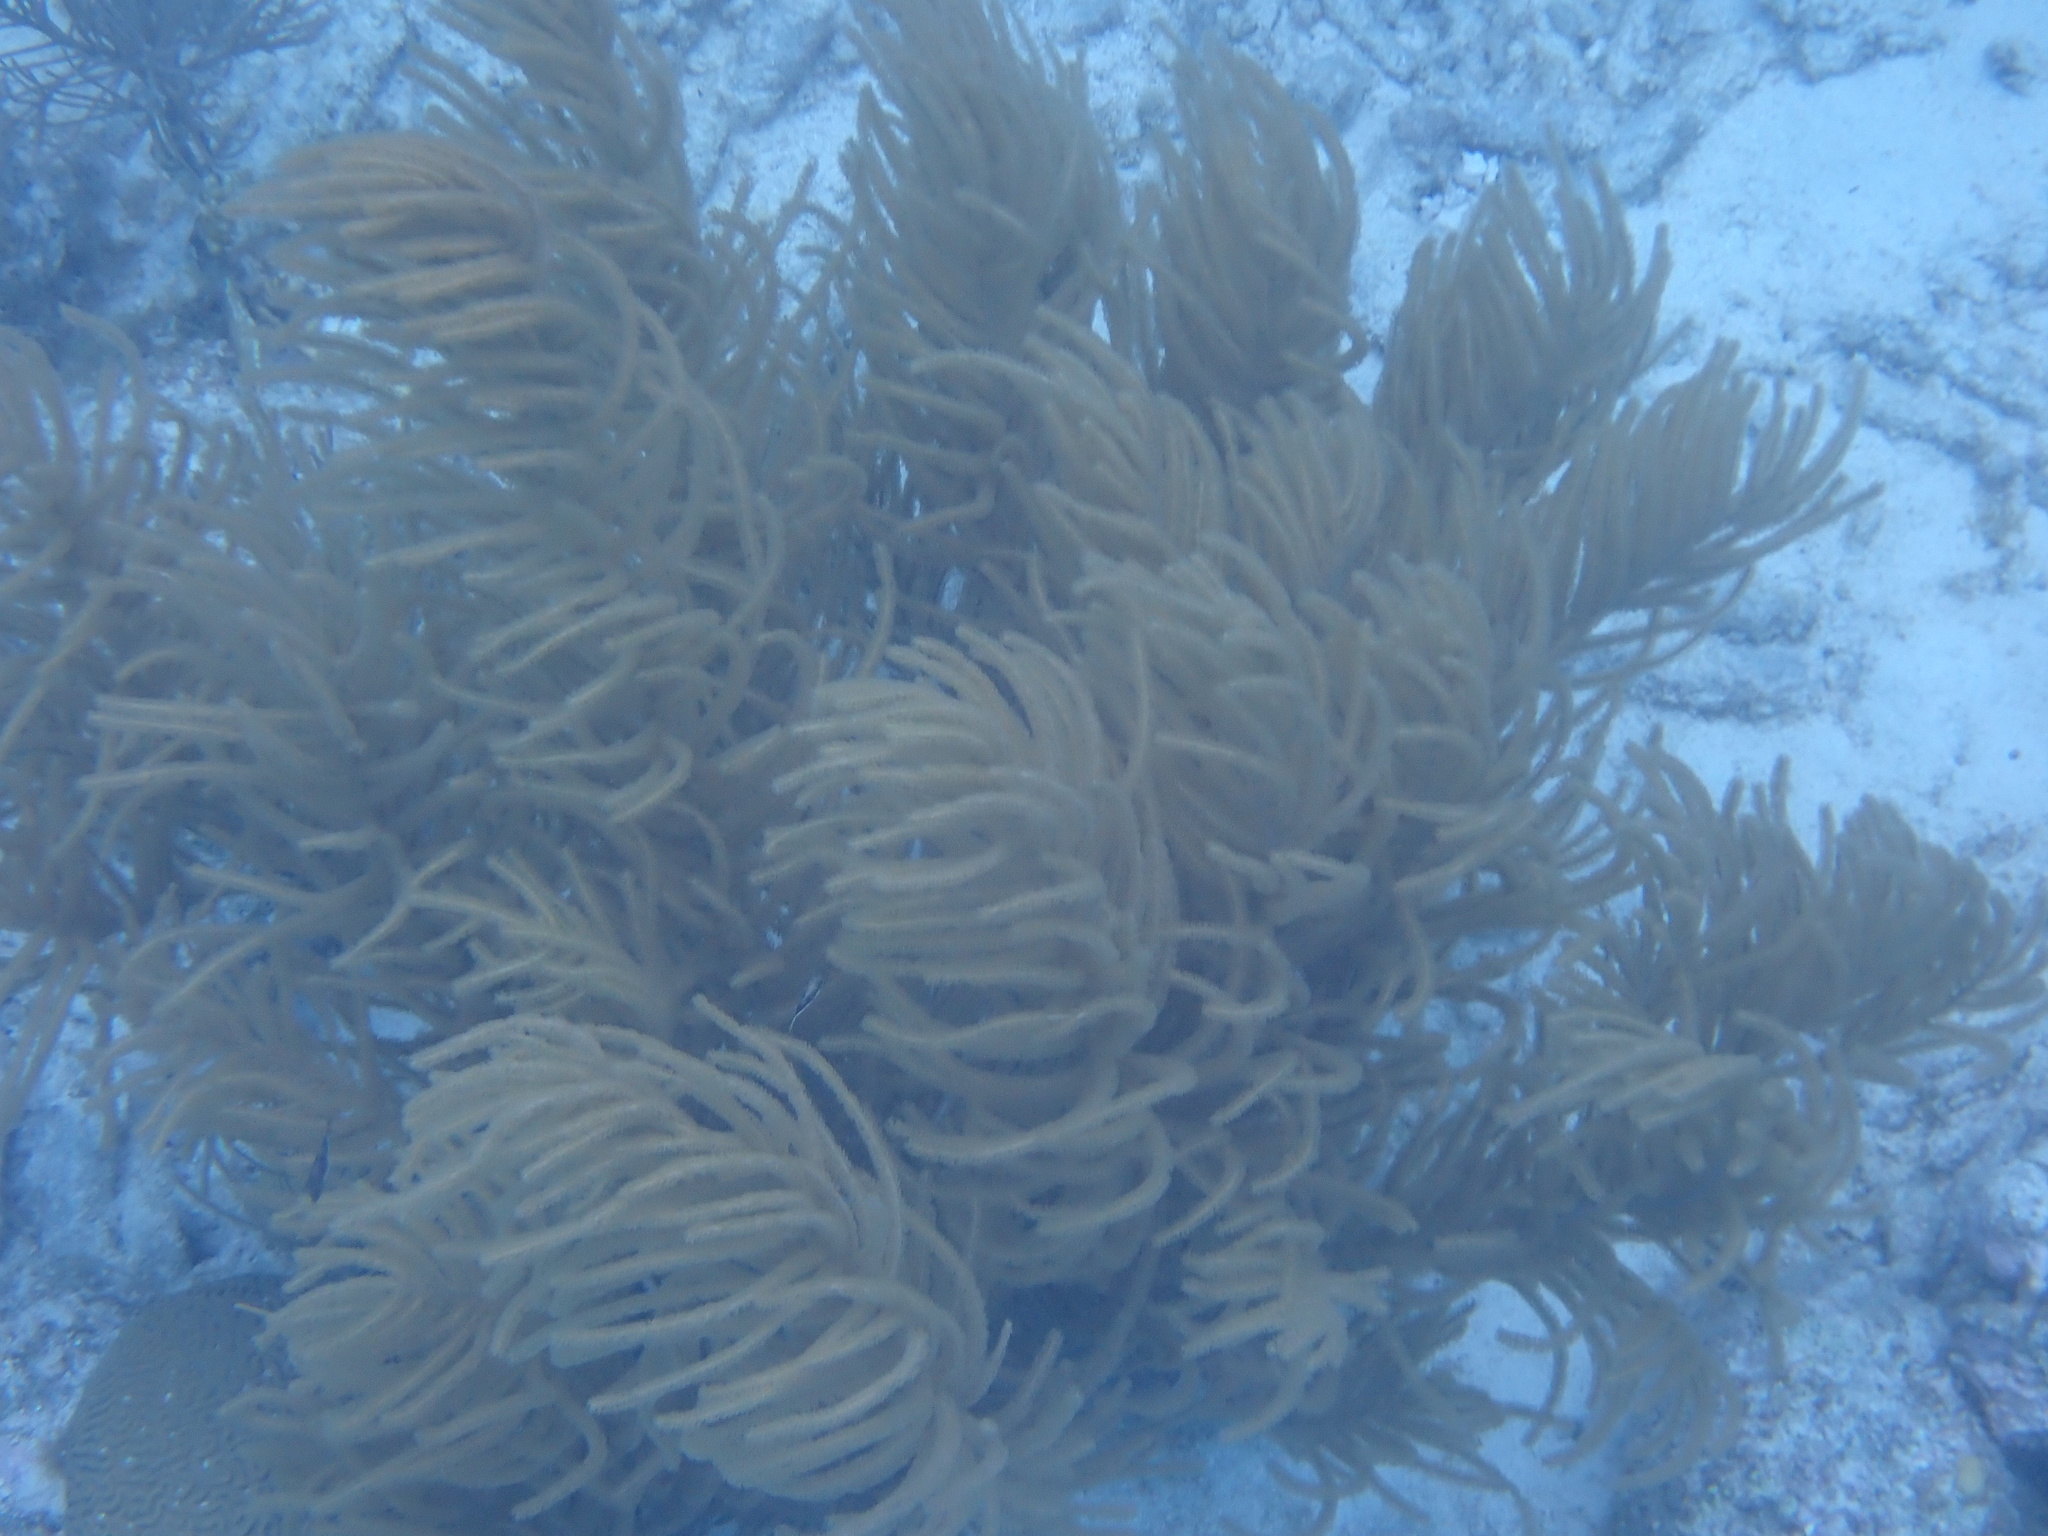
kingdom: Animalia
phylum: Cnidaria
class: Anthozoa
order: Malacalcyonacea
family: Pterogorgiidae
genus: Muriceopsis
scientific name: Muriceopsis flavida
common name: Rough sea plume
